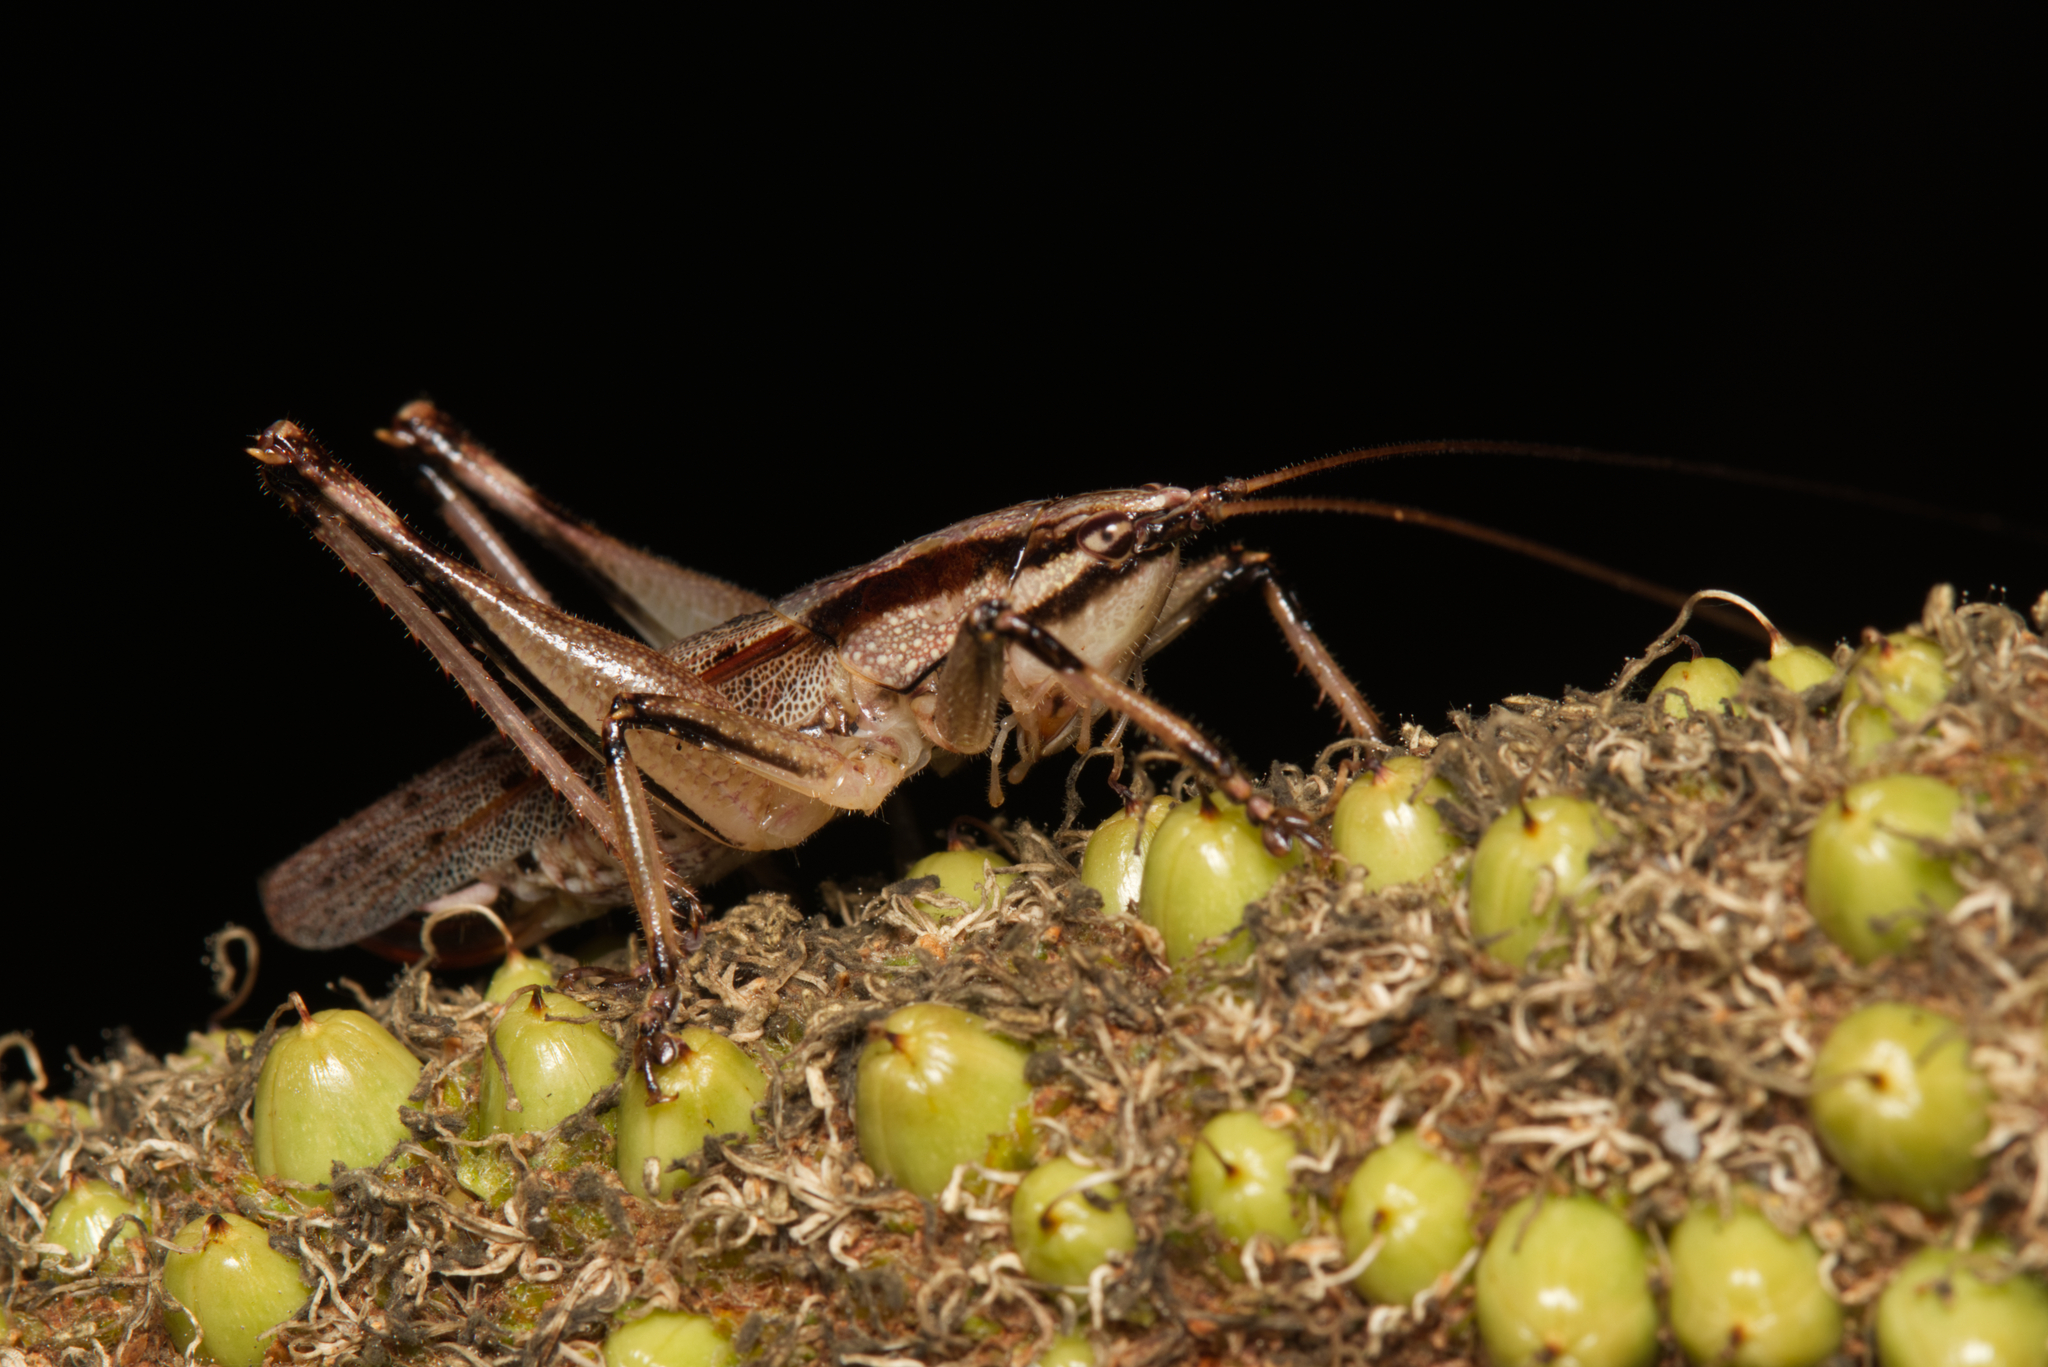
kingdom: Animalia
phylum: Arthropoda
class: Insecta
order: Orthoptera
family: Tettigoniidae
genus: Larifugagraecia
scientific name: Larifugagraecia cornuta
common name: Spine-headed nicsara
